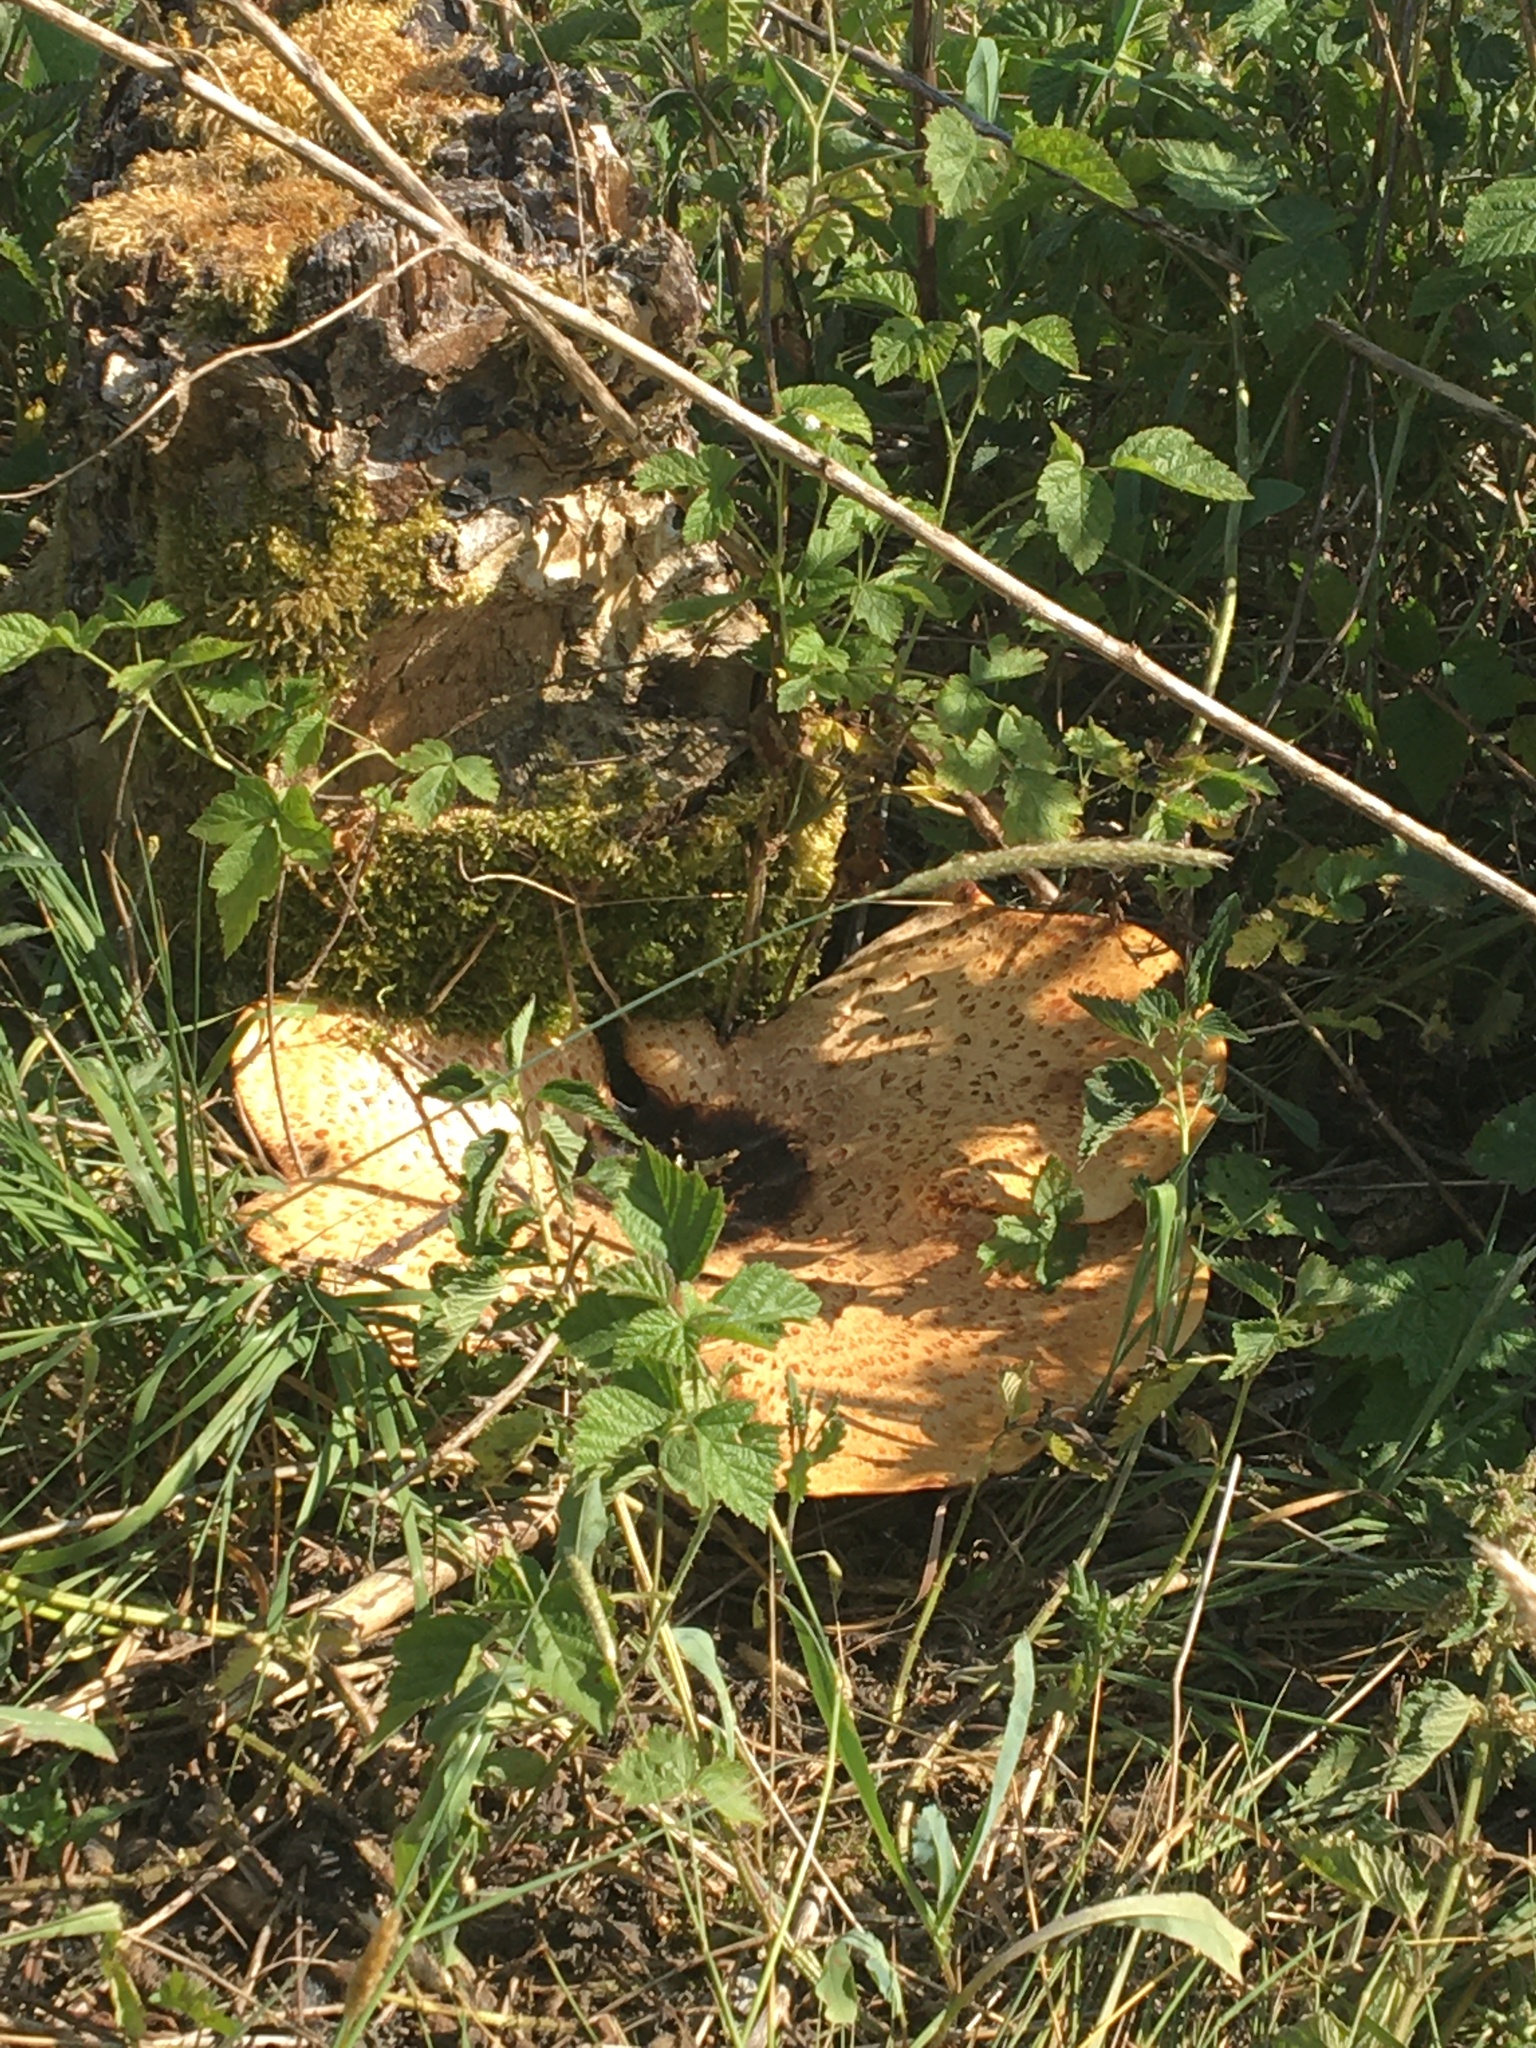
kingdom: Fungi
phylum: Basidiomycota
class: Agaricomycetes
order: Polyporales
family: Polyporaceae
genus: Cerioporus
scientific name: Cerioporus squamosus
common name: Dryad's saddle
